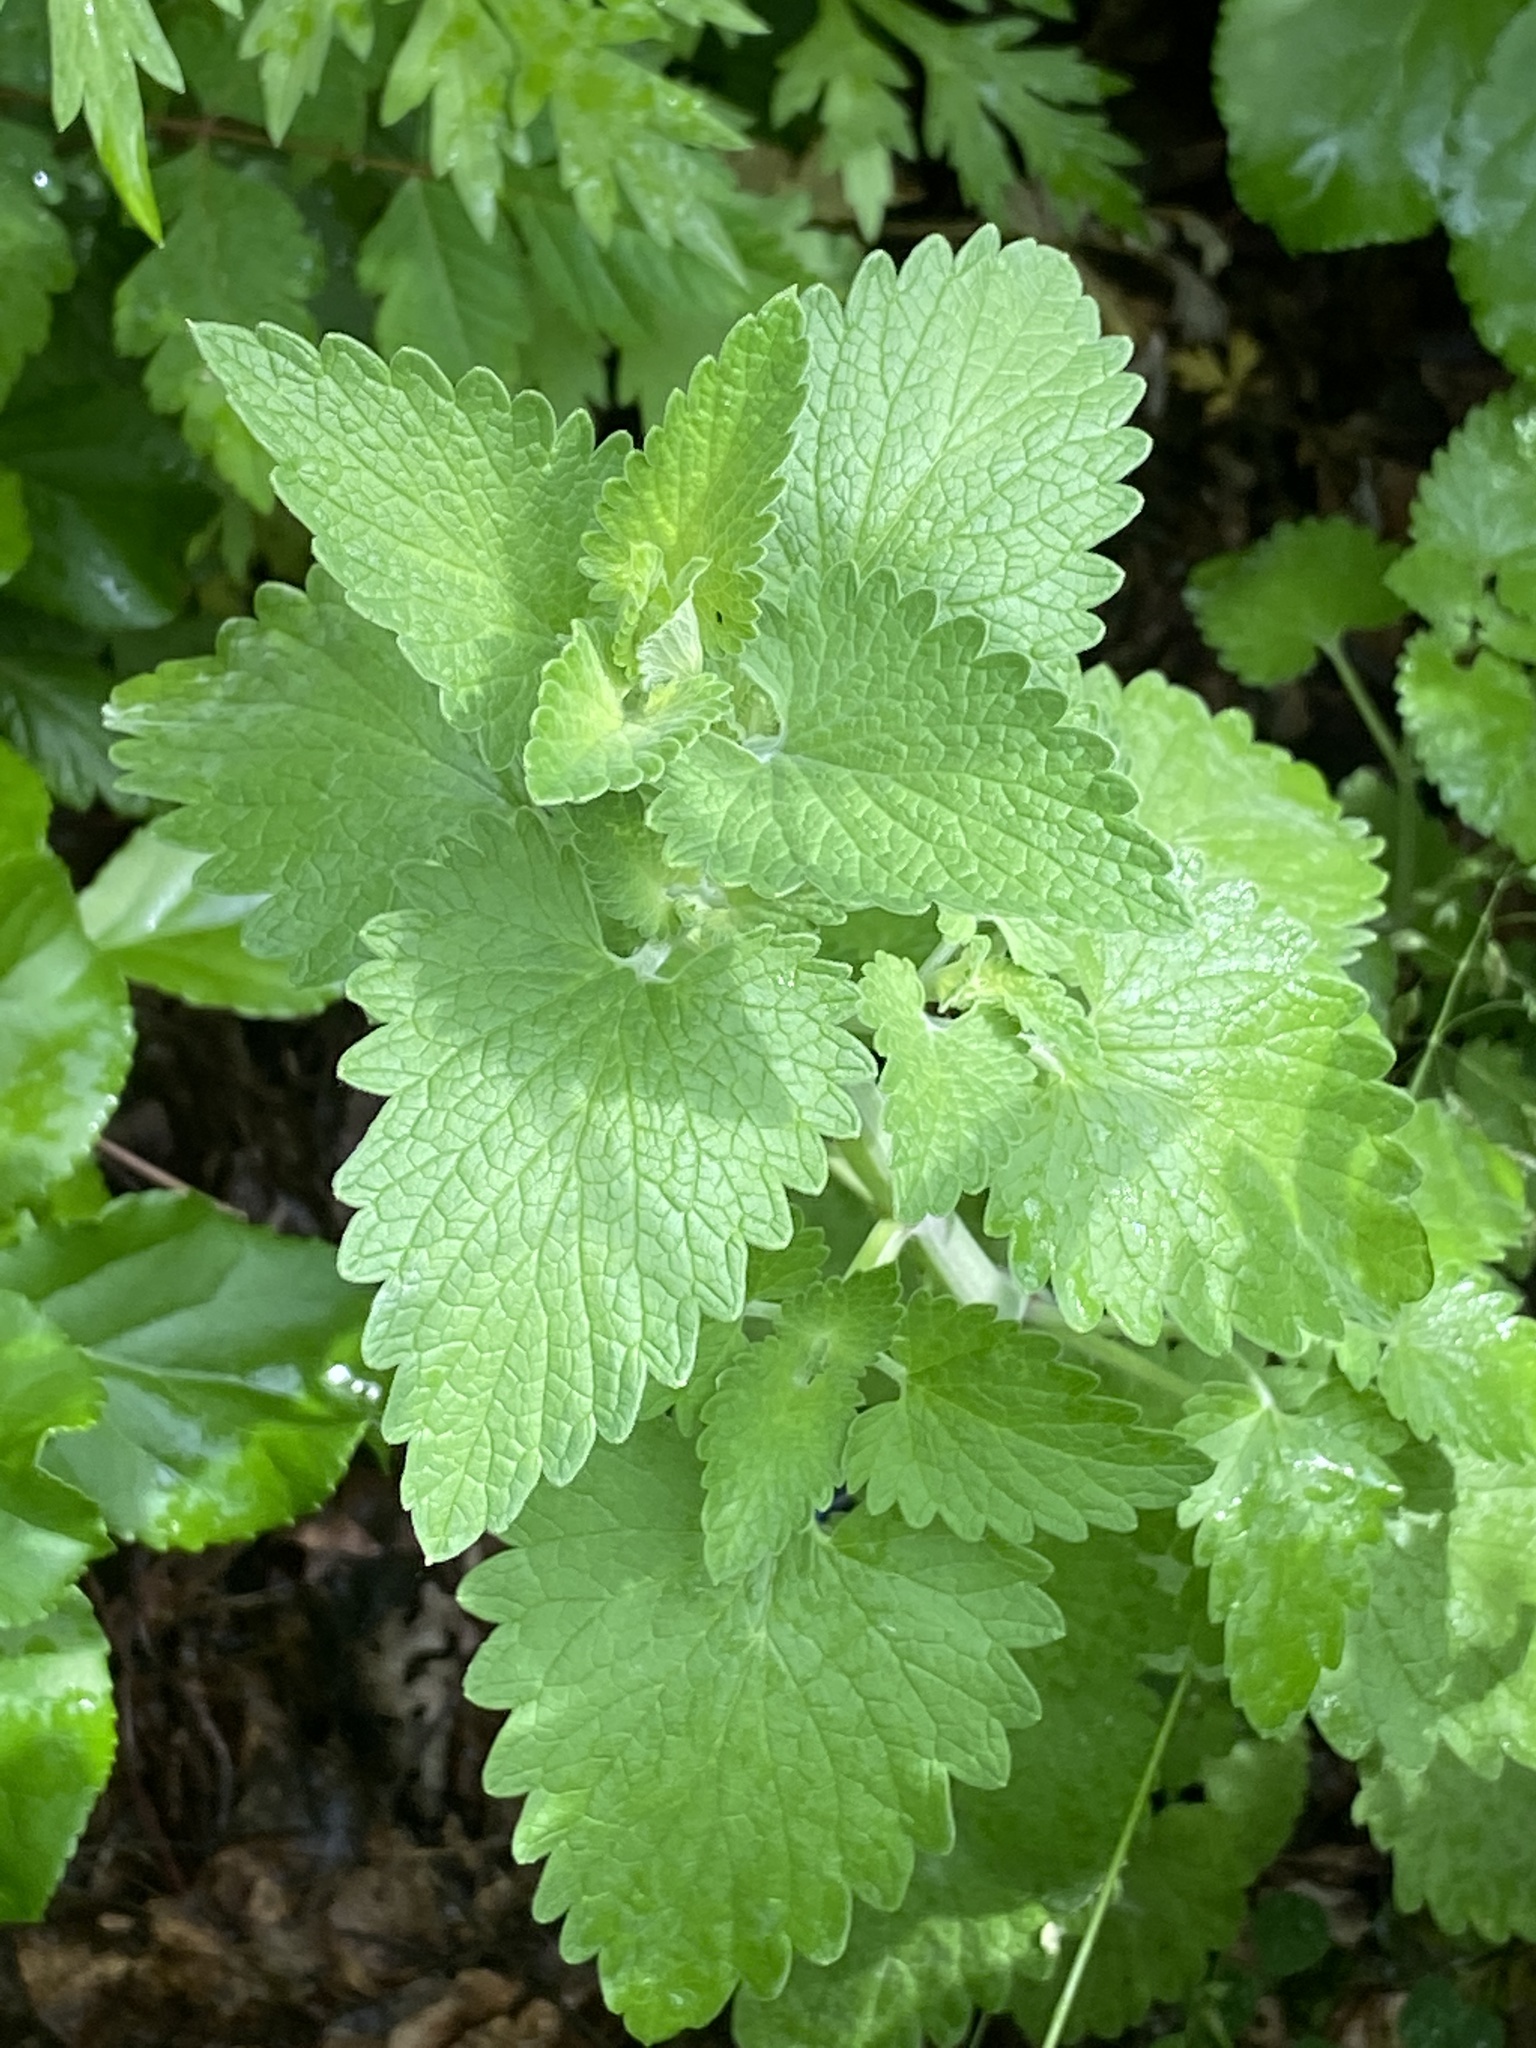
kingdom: Plantae
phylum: Tracheophyta
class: Magnoliopsida
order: Lamiales
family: Lamiaceae
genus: Nepeta
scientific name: Nepeta cataria
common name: Catnip
